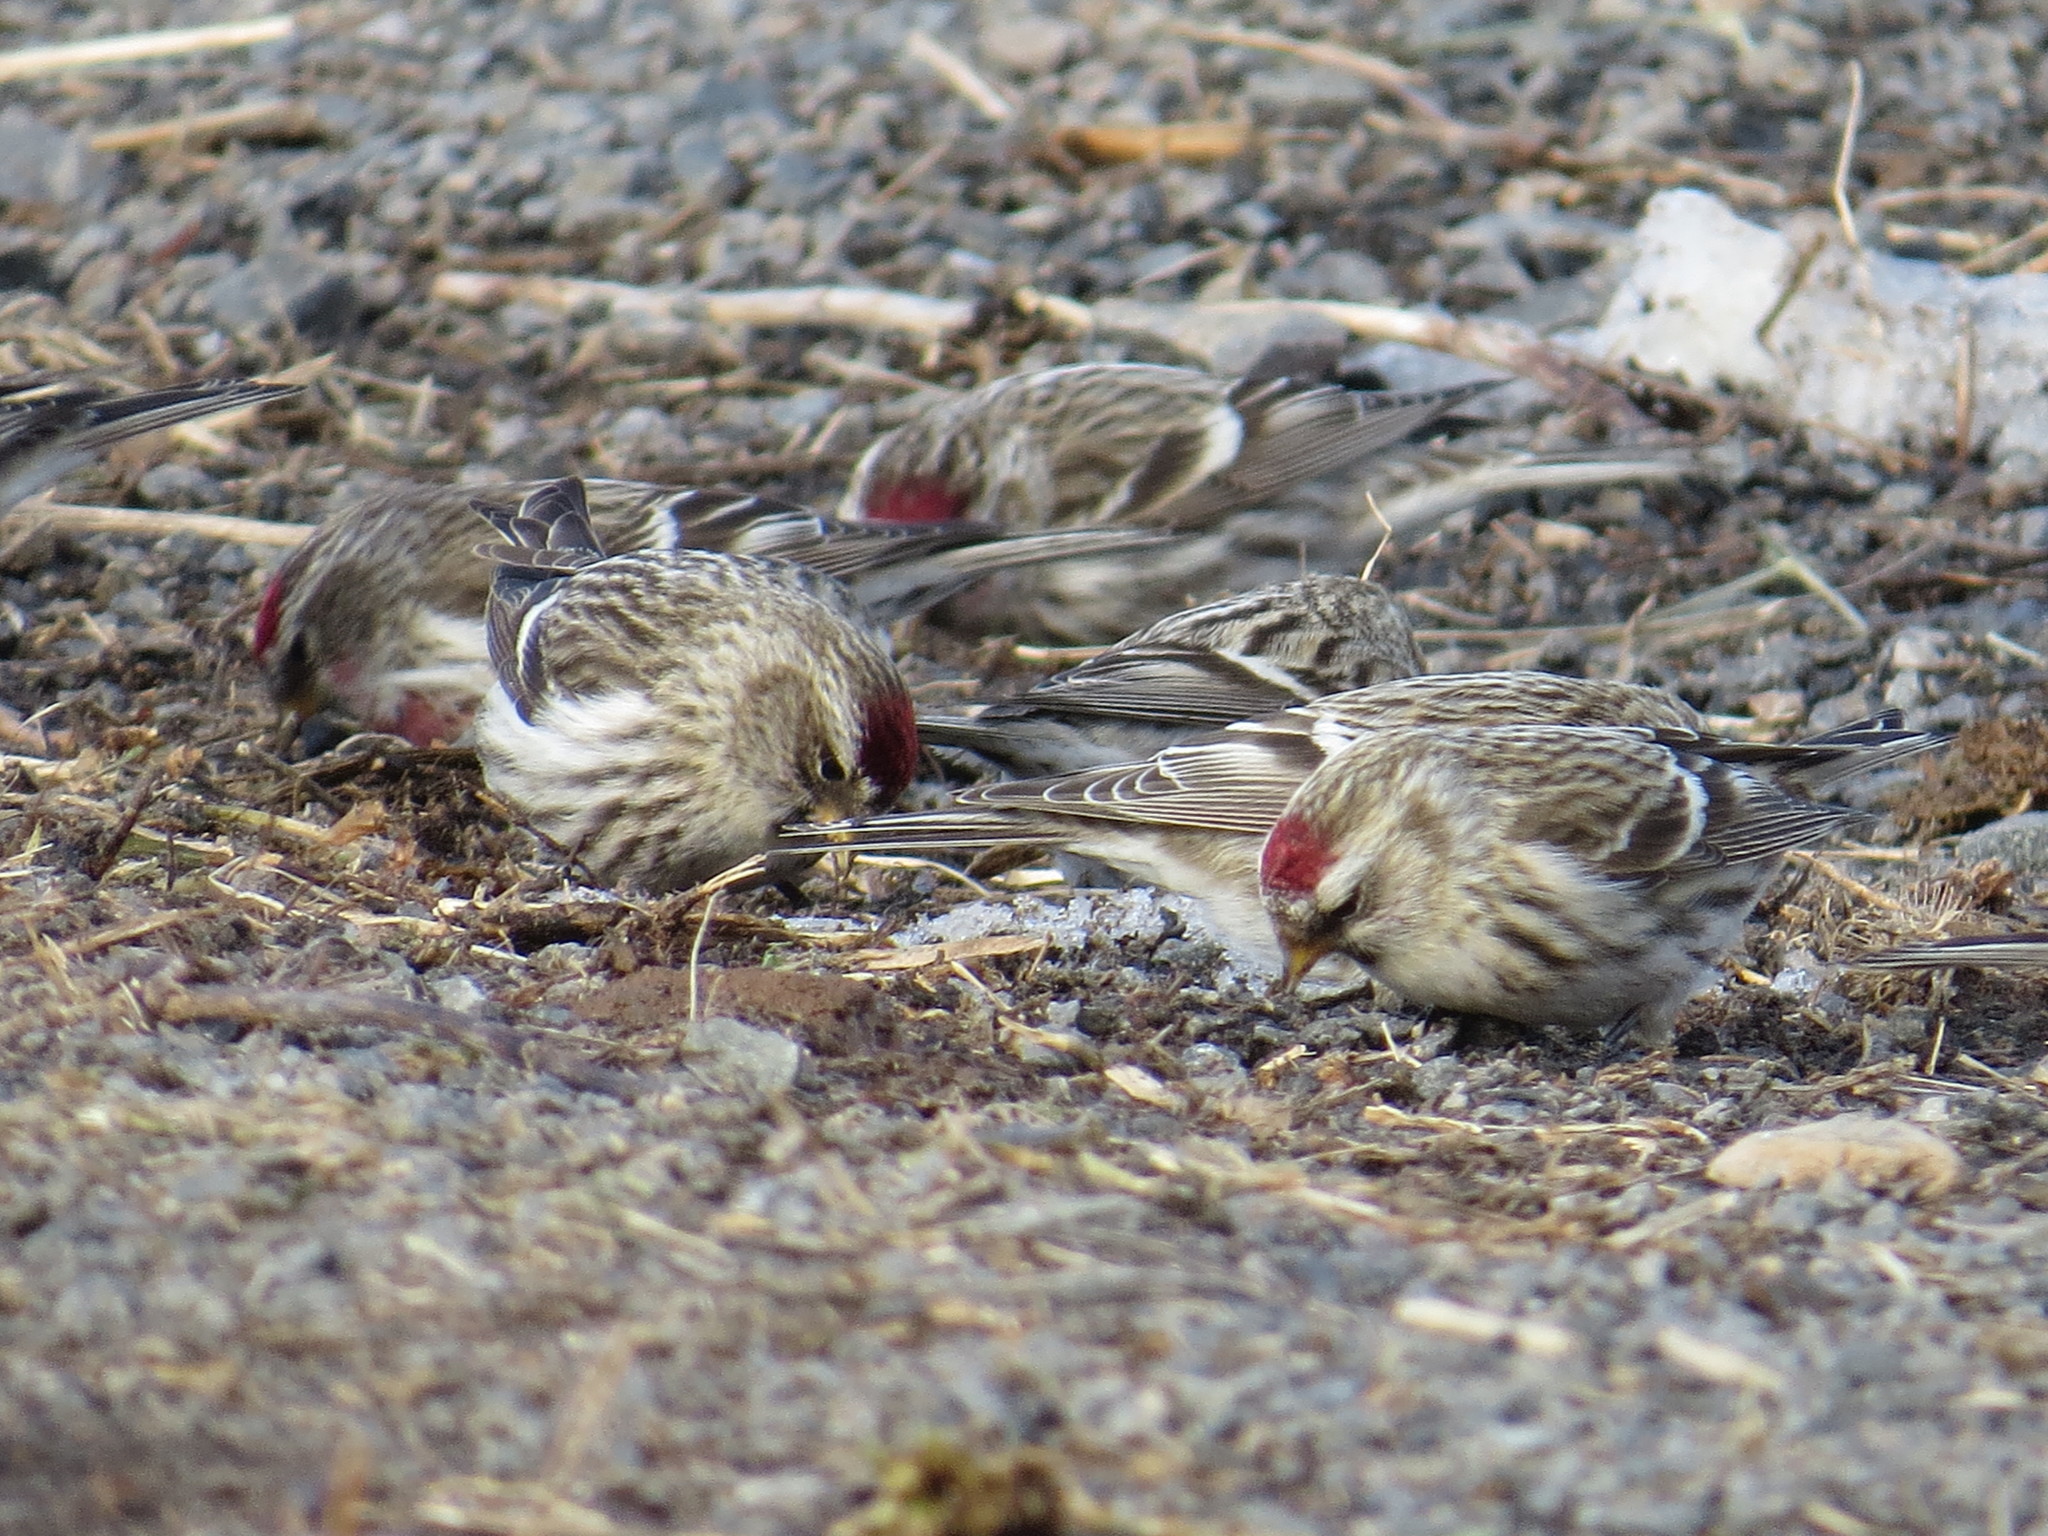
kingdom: Animalia
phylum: Chordata
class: Aves
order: Passeriformes
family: Fringillidae
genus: Acanthis
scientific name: Acanthis flammea
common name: Common redpoll
